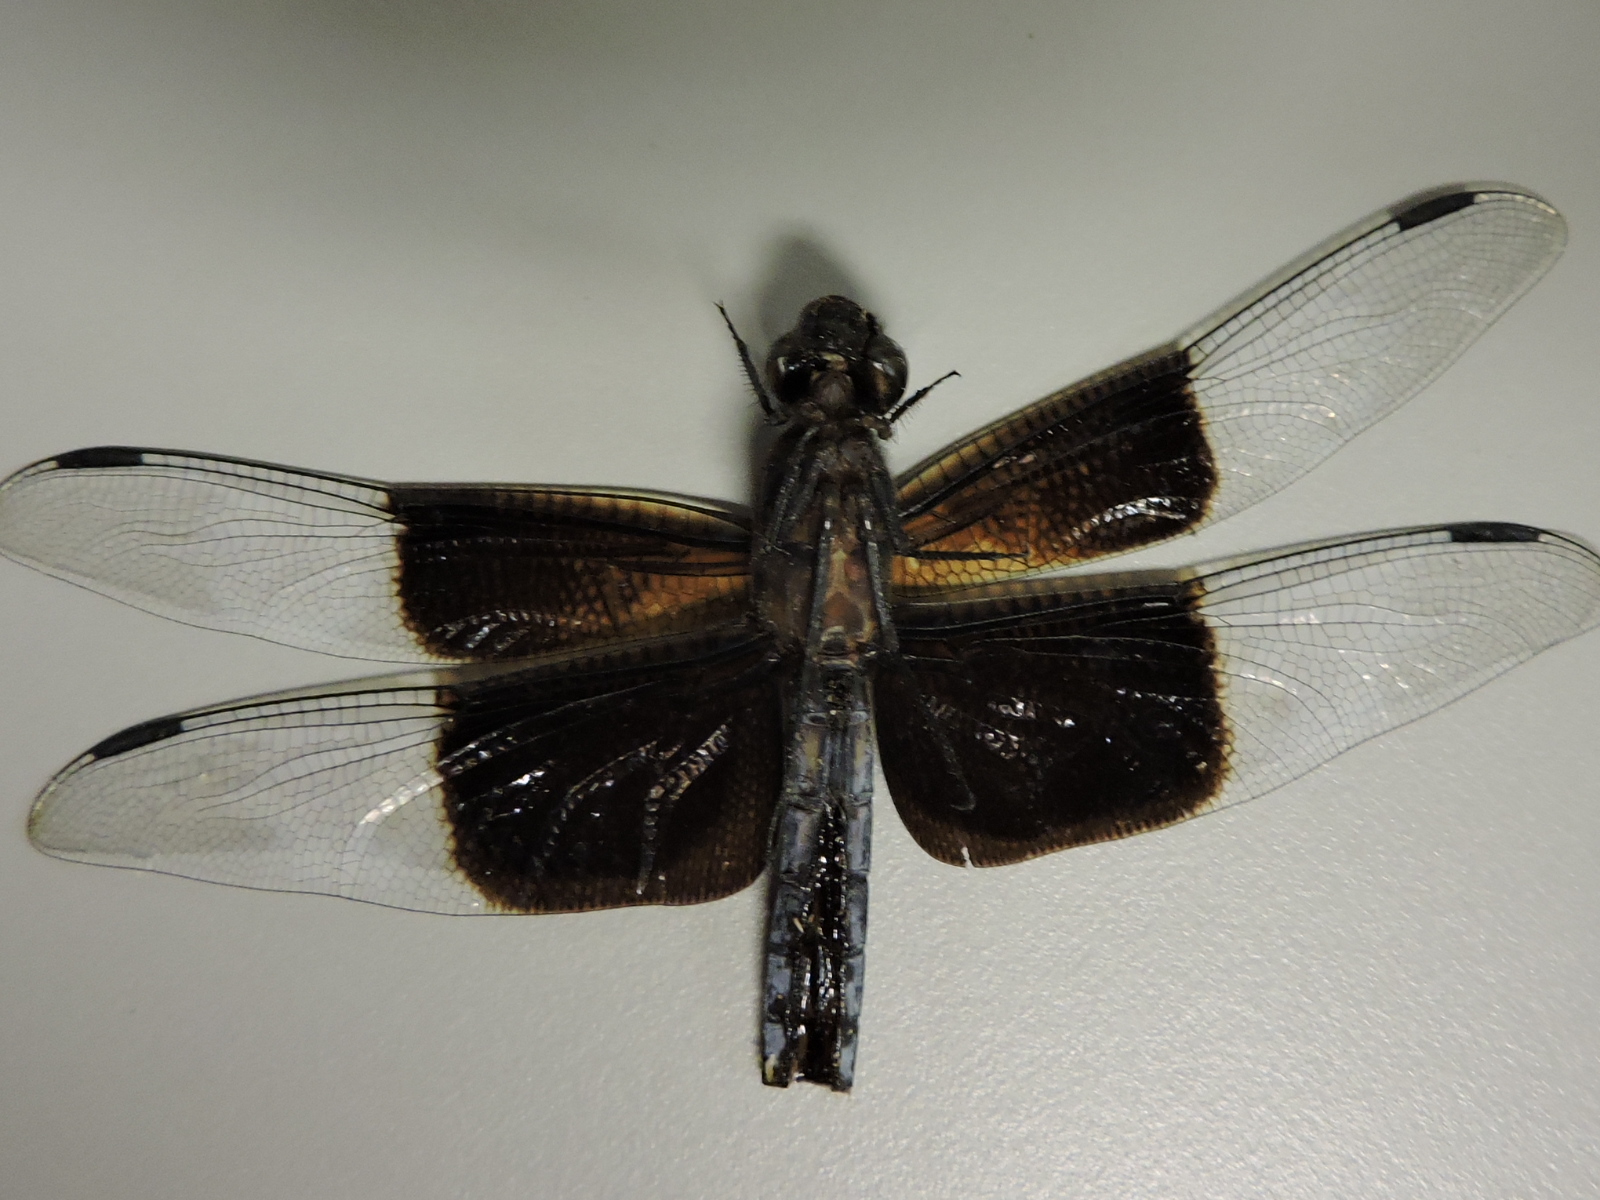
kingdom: Animalia
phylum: Arthropoda
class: Insecta
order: Odonata
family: Libellulidae
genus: Libellula
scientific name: Libellula luctuosa
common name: Widow skimmer
